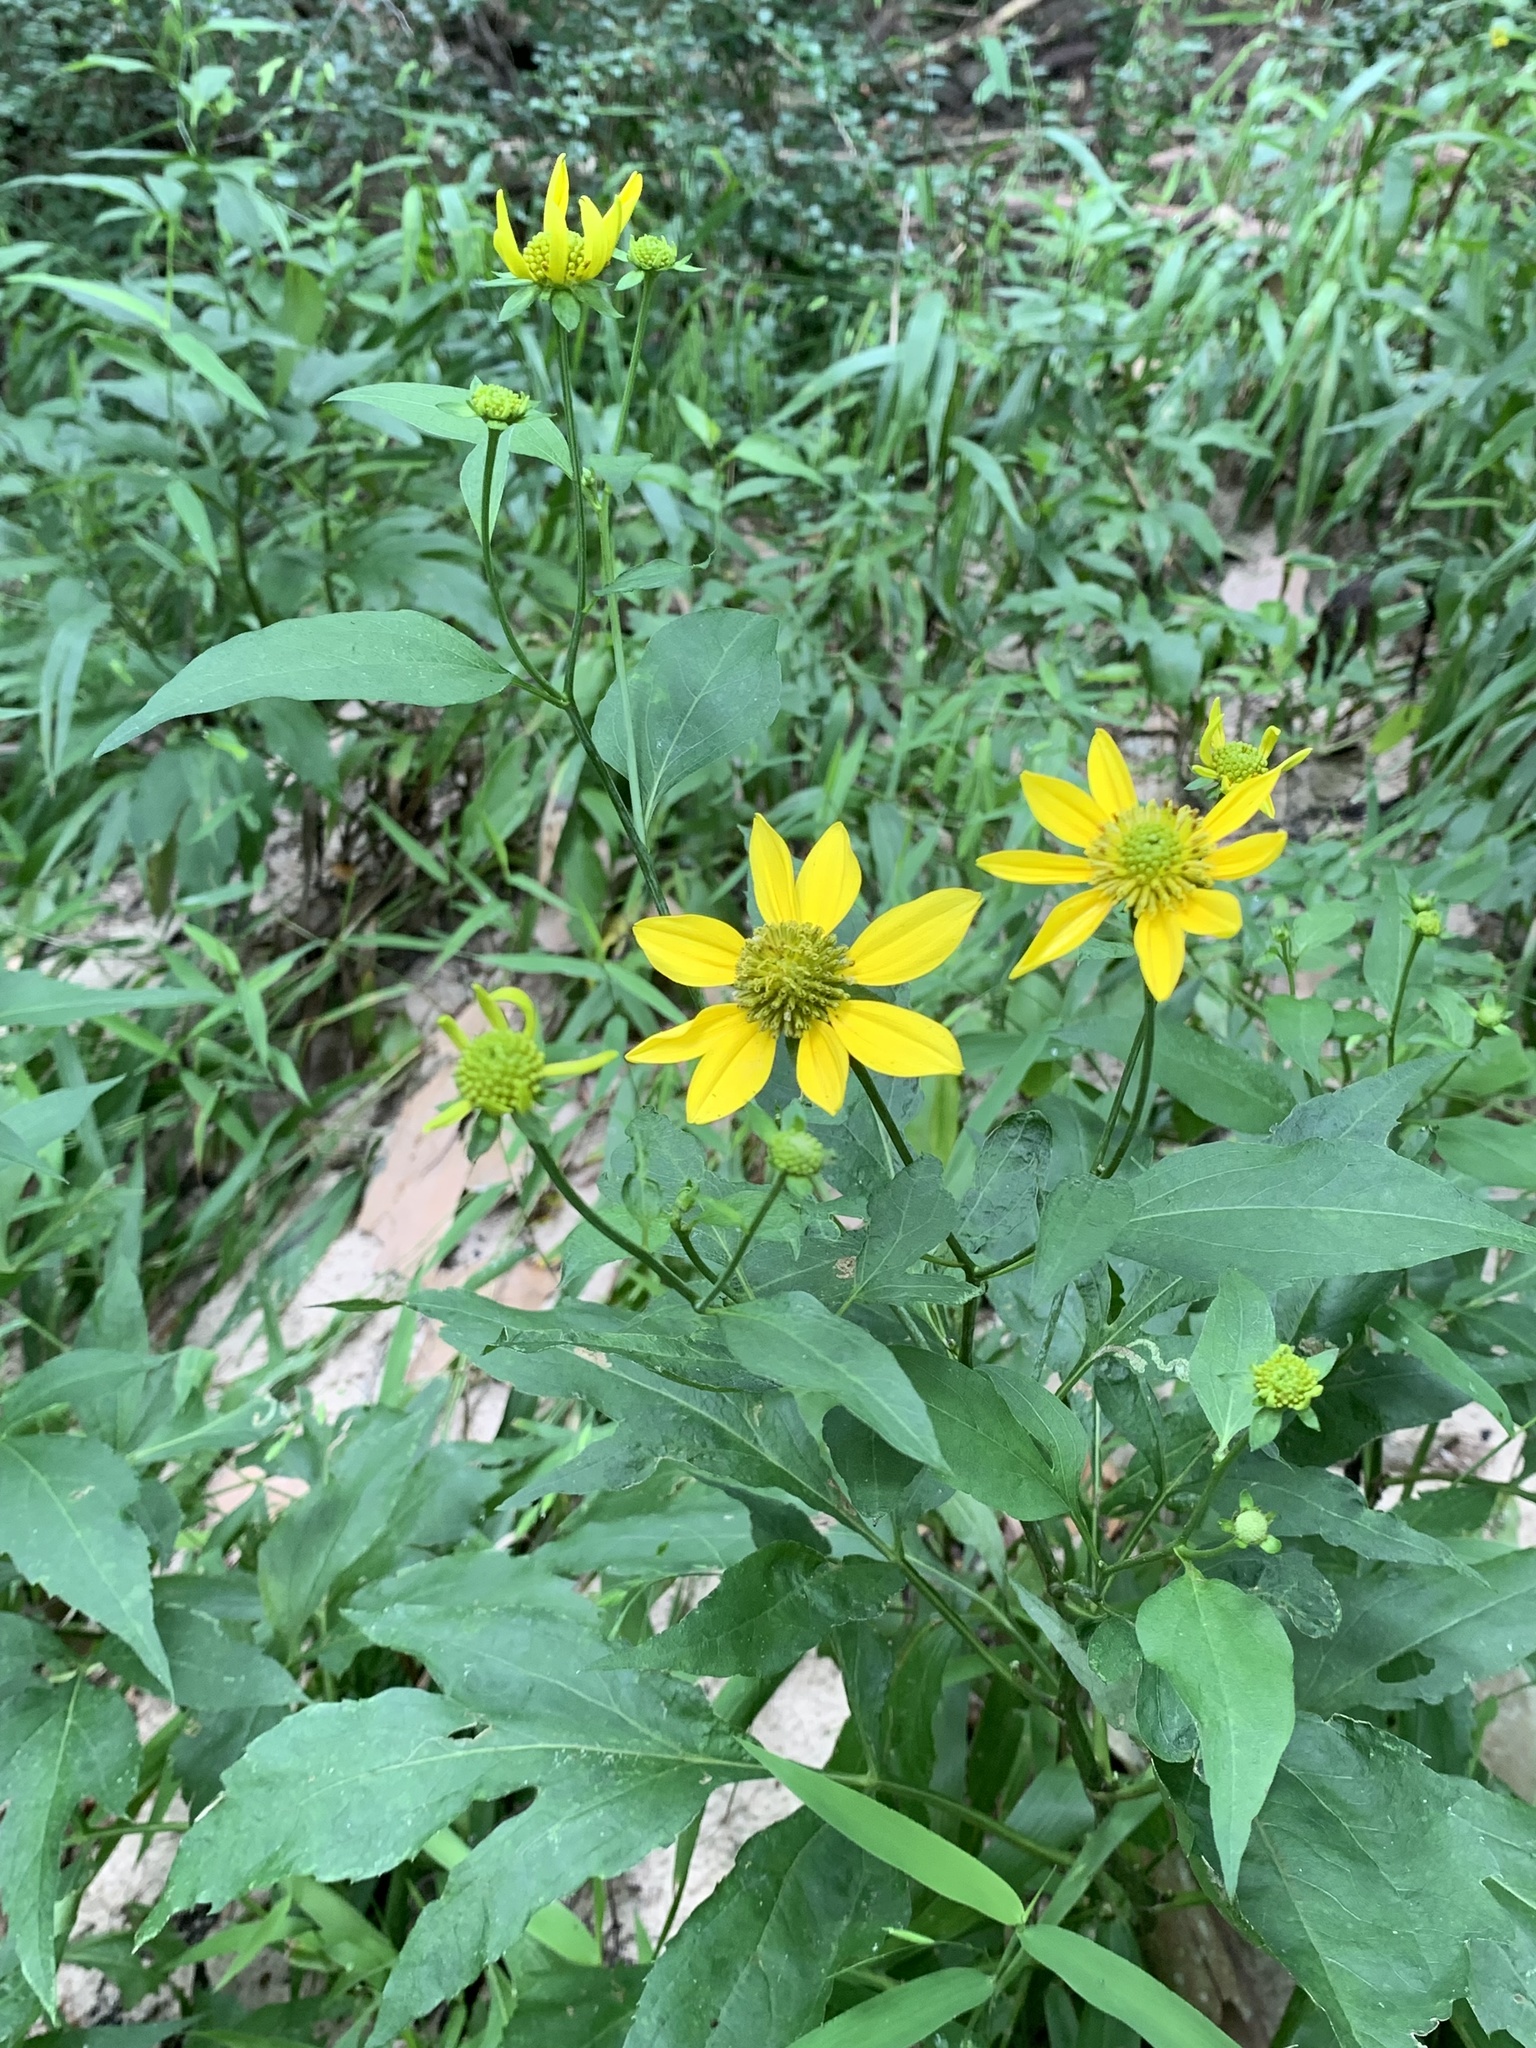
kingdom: Plantae
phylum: Tracheophyta
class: Magnoliopsida
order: Asterales
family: Asteraceae
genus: Rudbeckia
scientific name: Rudbeckia laciniata
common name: Coneflower
